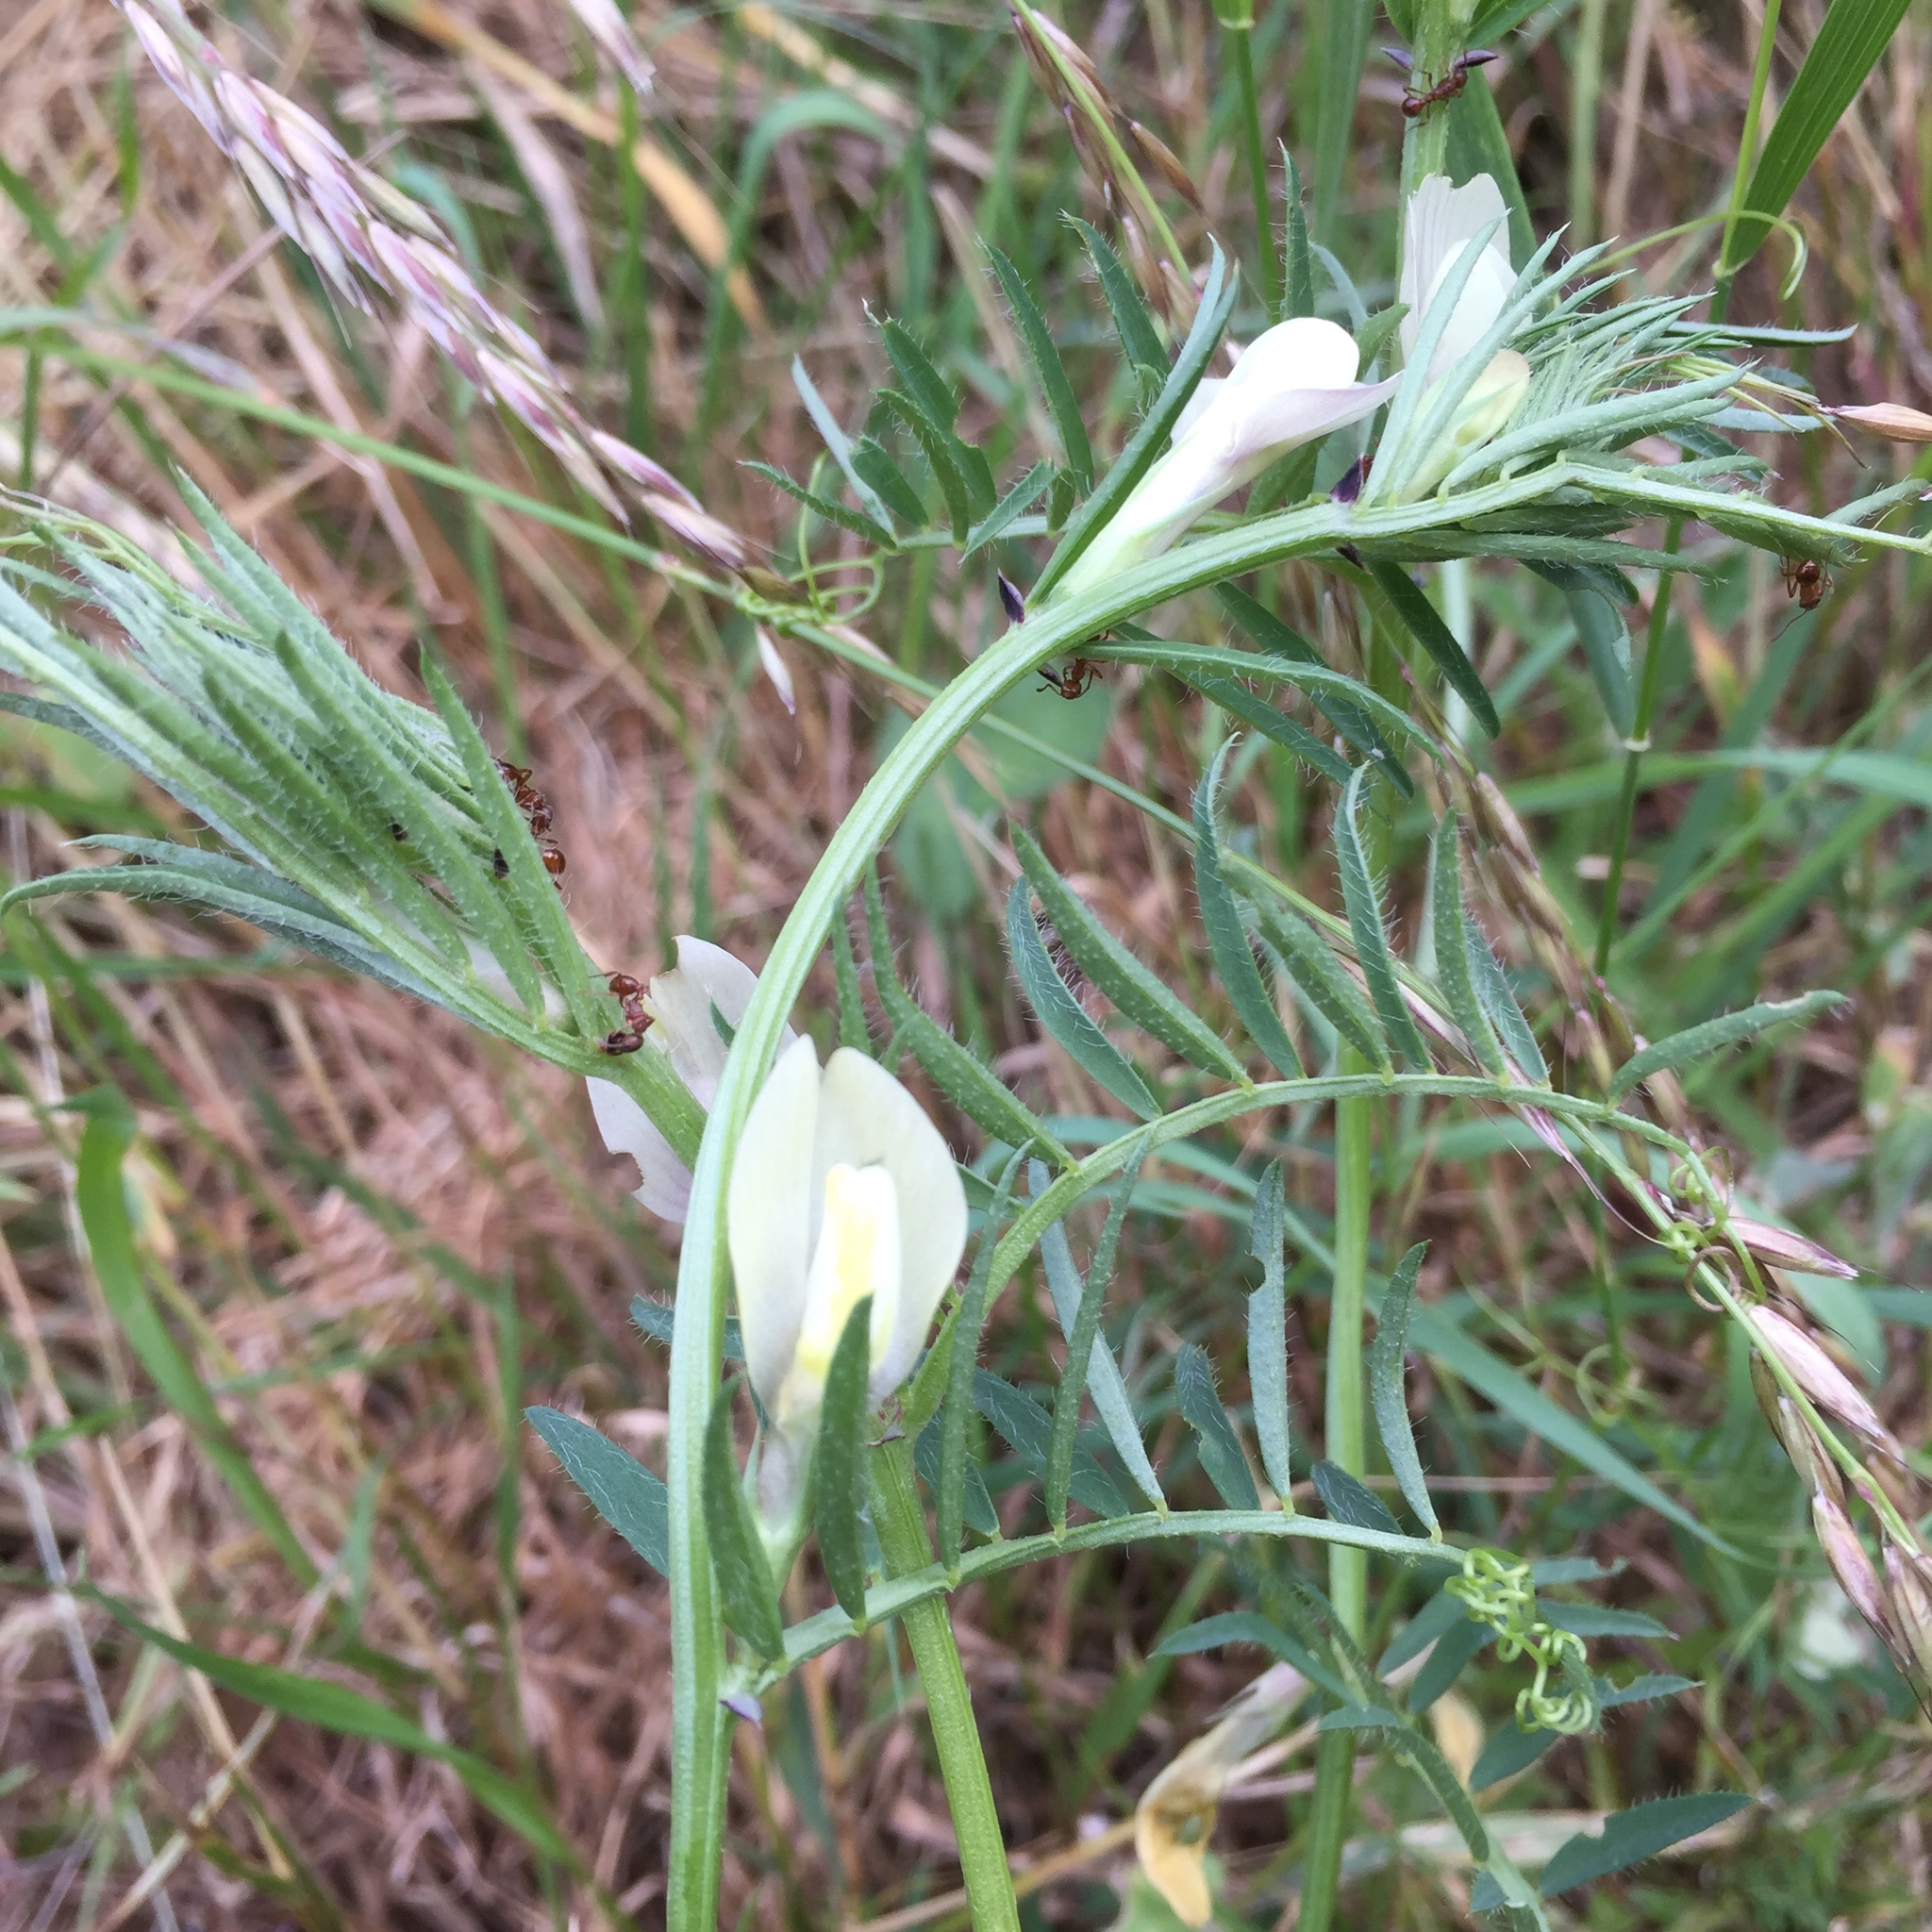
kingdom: Plantae
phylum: Tracheophyta
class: Magnoliopsida
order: Fabales
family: Fabaceae
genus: Vicia
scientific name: Vicia grandiflora
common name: Large yellow vetch
